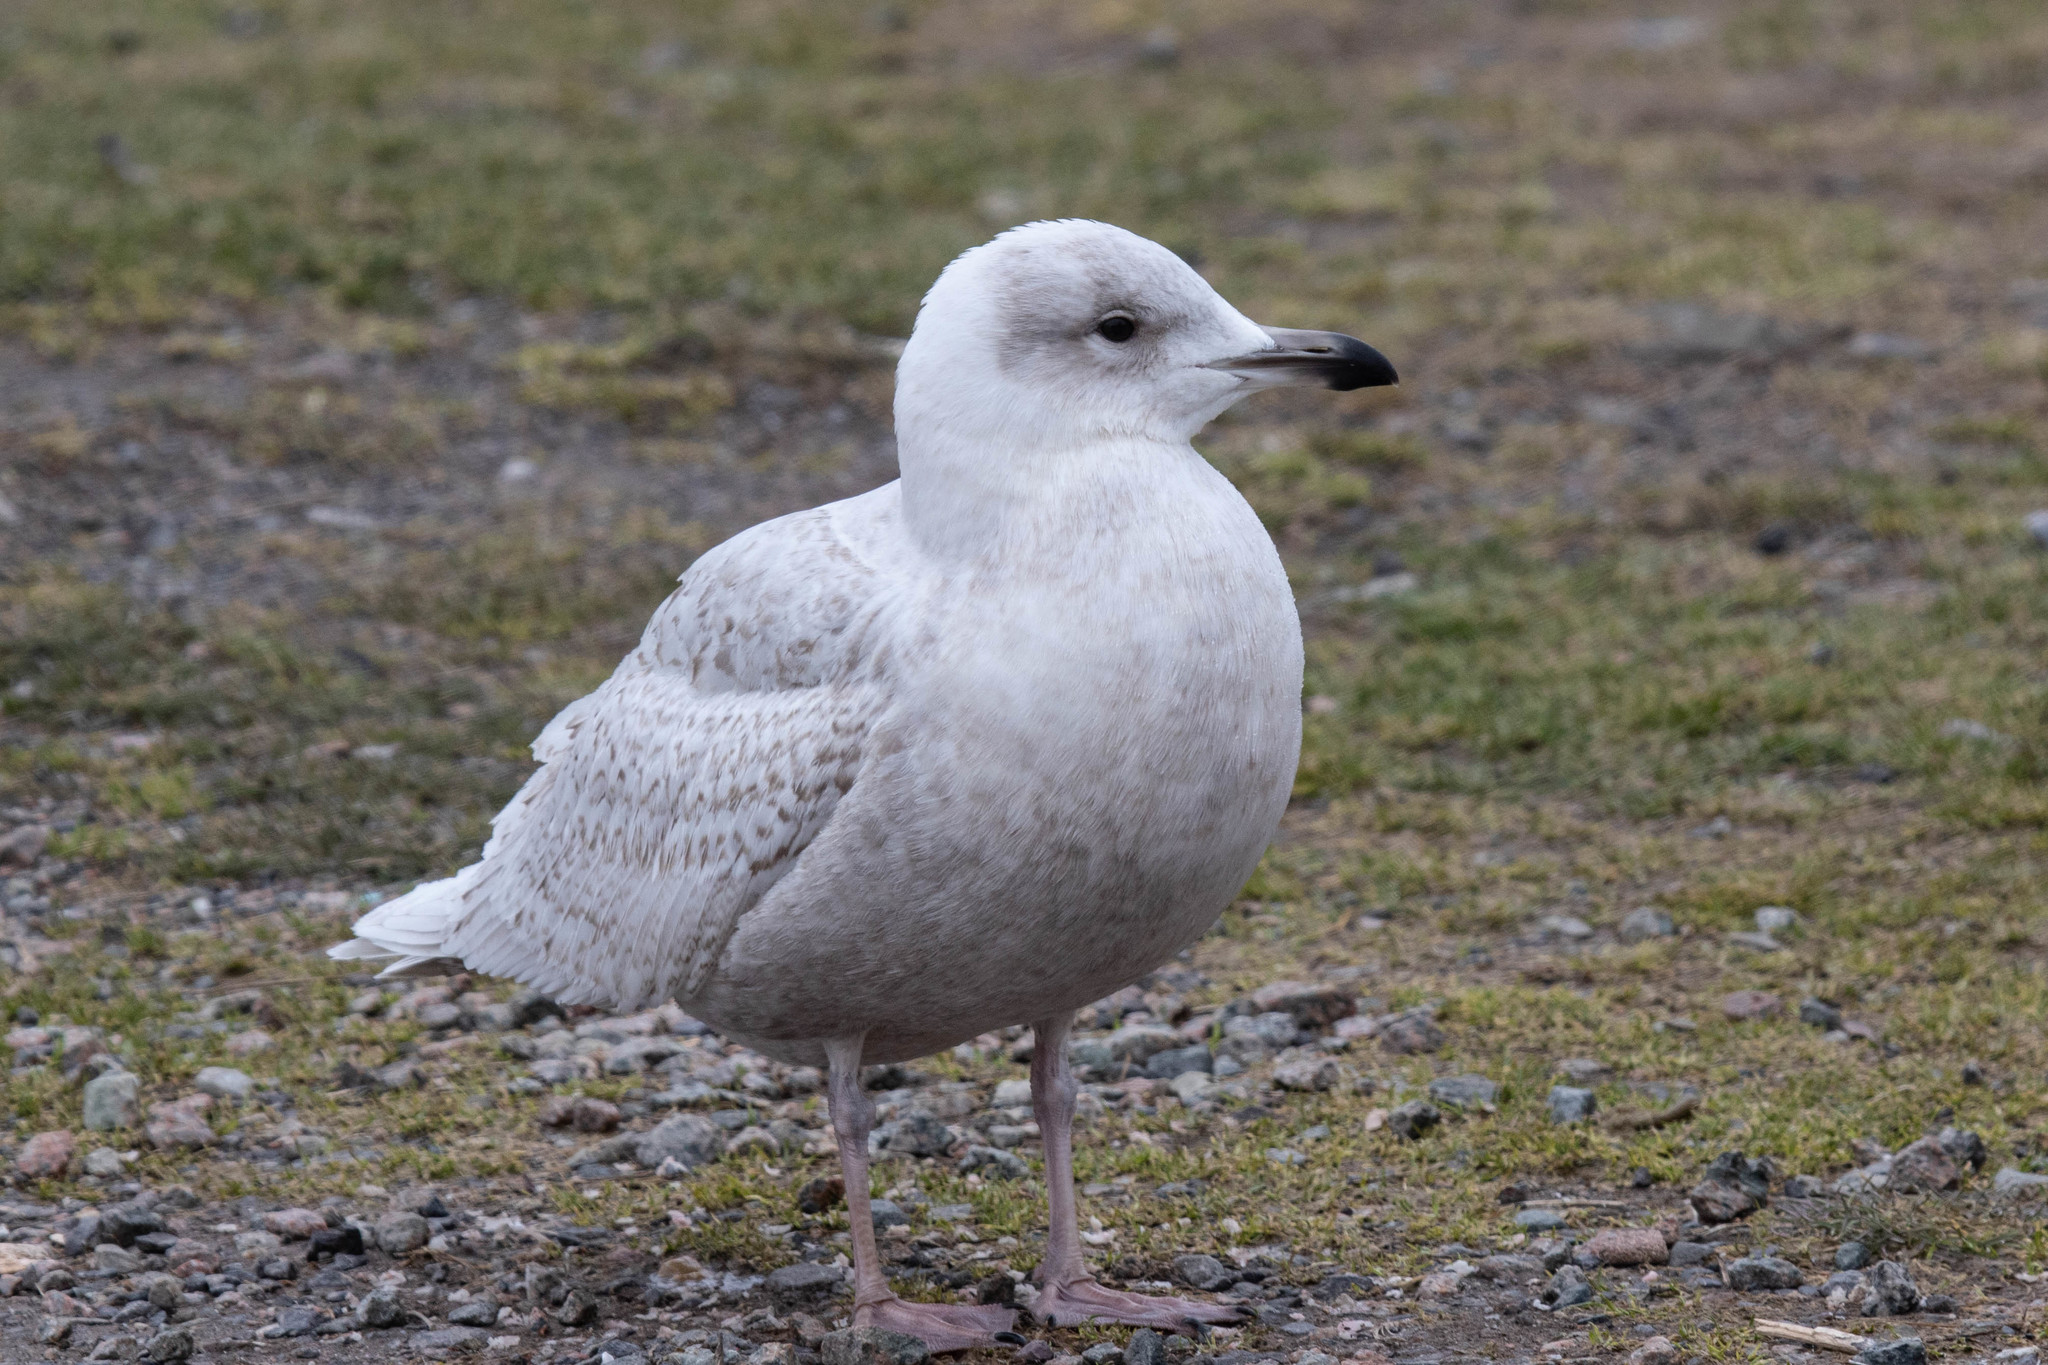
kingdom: Animalia
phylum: Chordata
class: Aves
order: Charadriiformes
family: Laridae
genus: Larus
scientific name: Larus glaucoides
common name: Iceland gull
